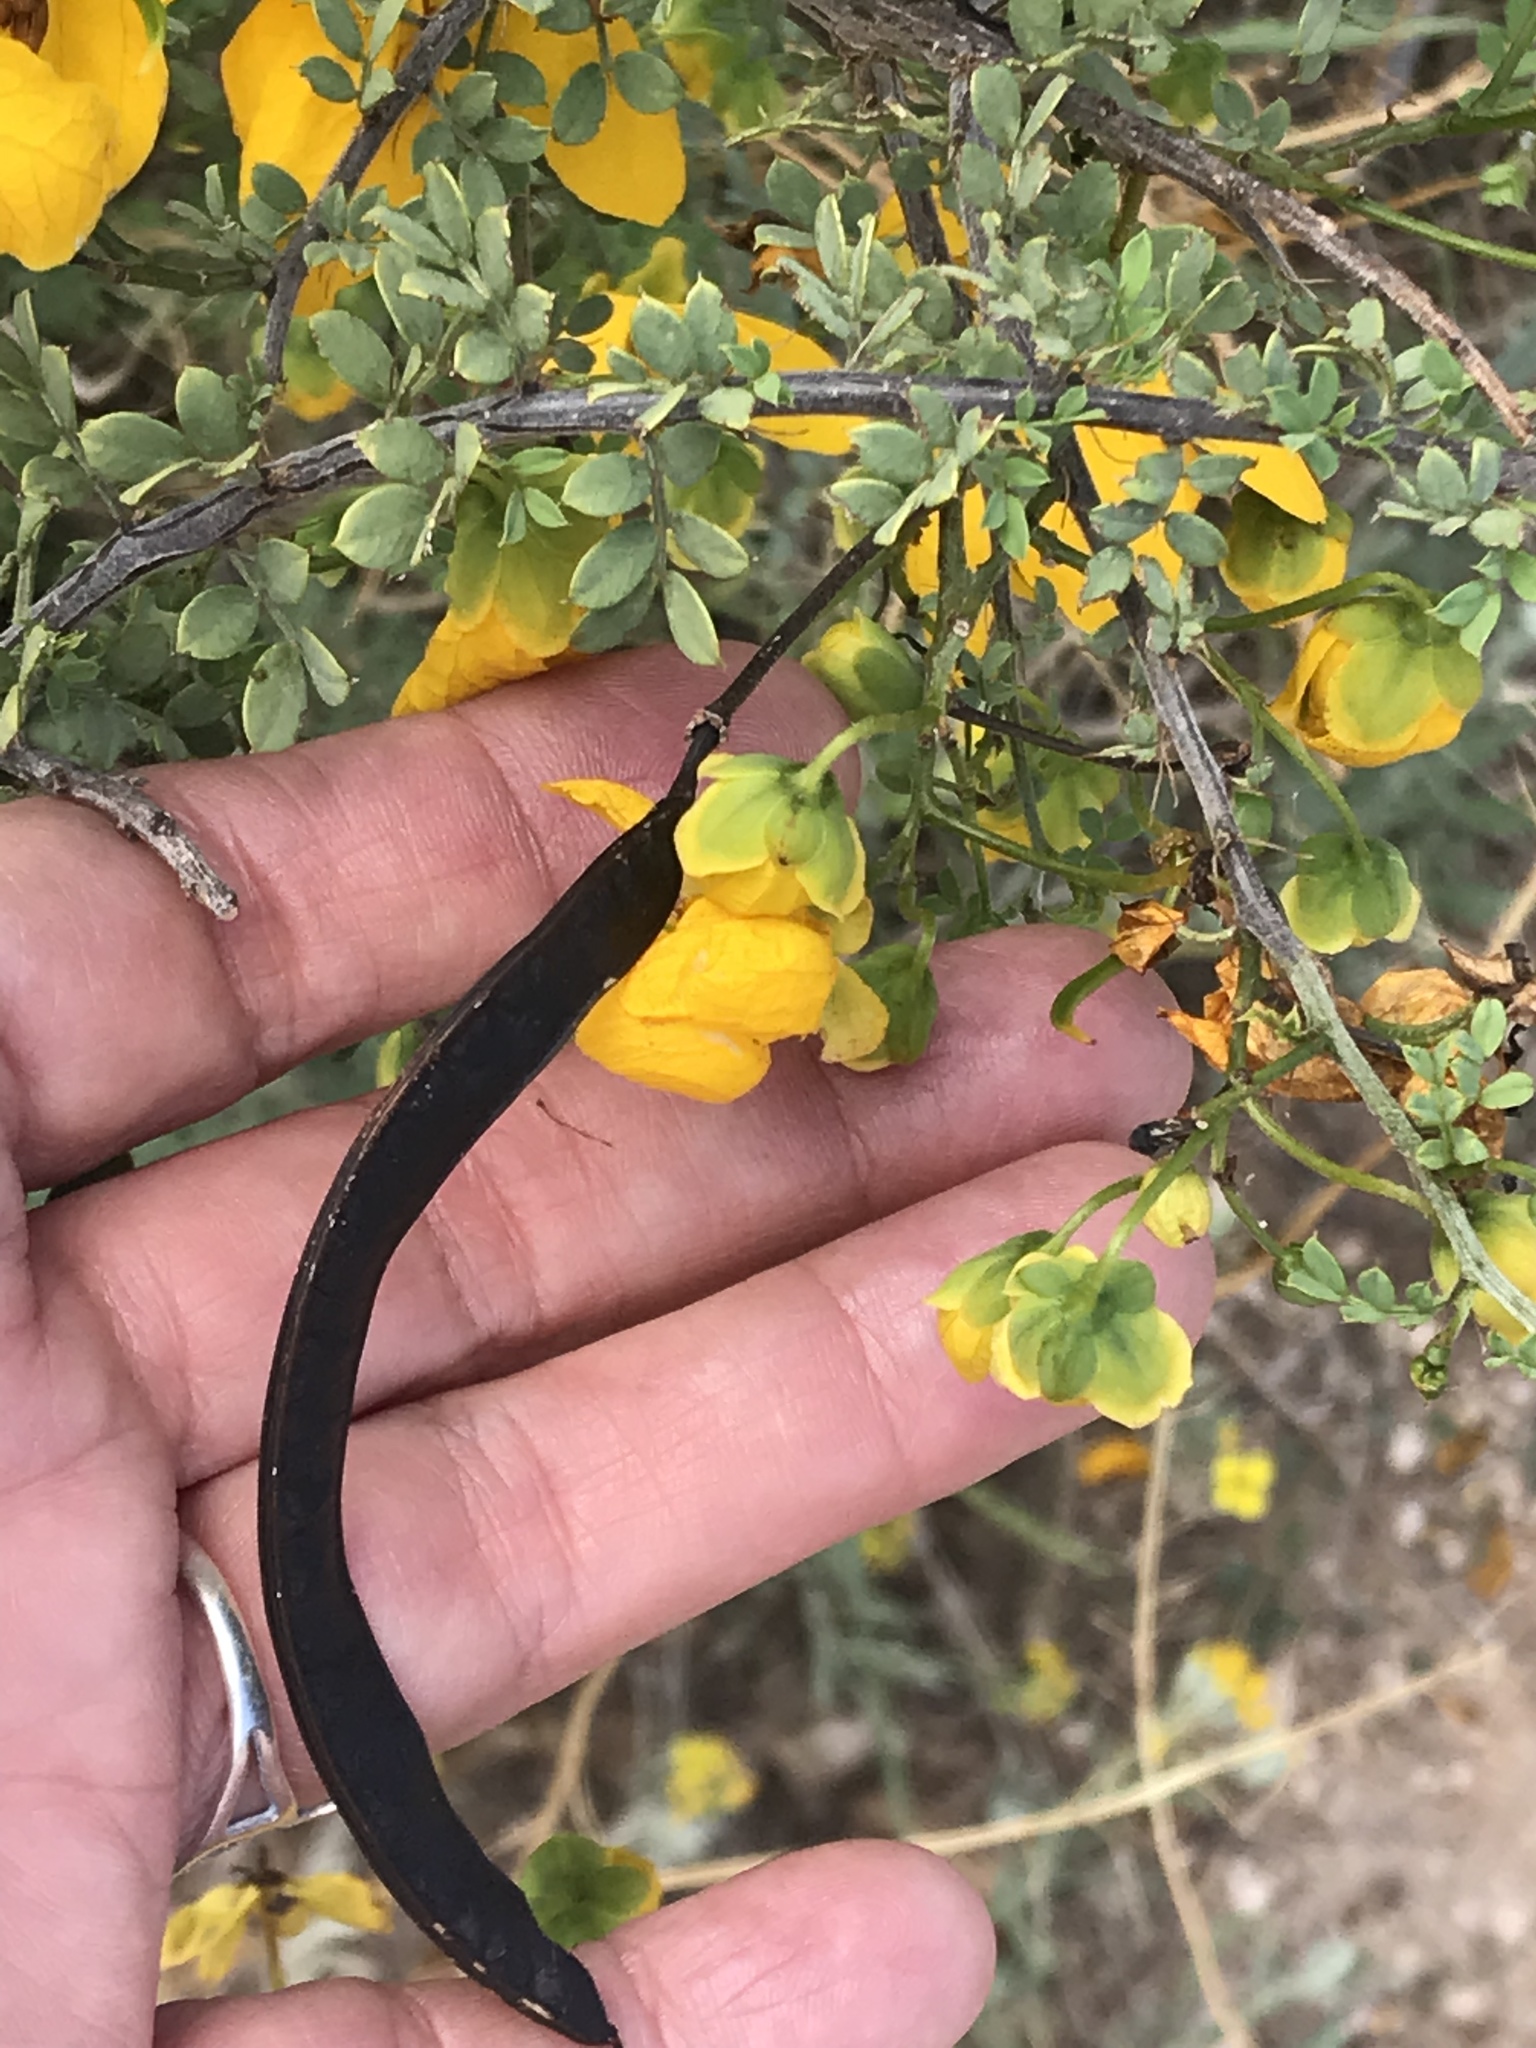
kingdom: Plantae
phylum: Tracheophyta
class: Magnoliopsida
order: Fabales
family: Fabaceae
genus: Senna
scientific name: Senna wislizeni
